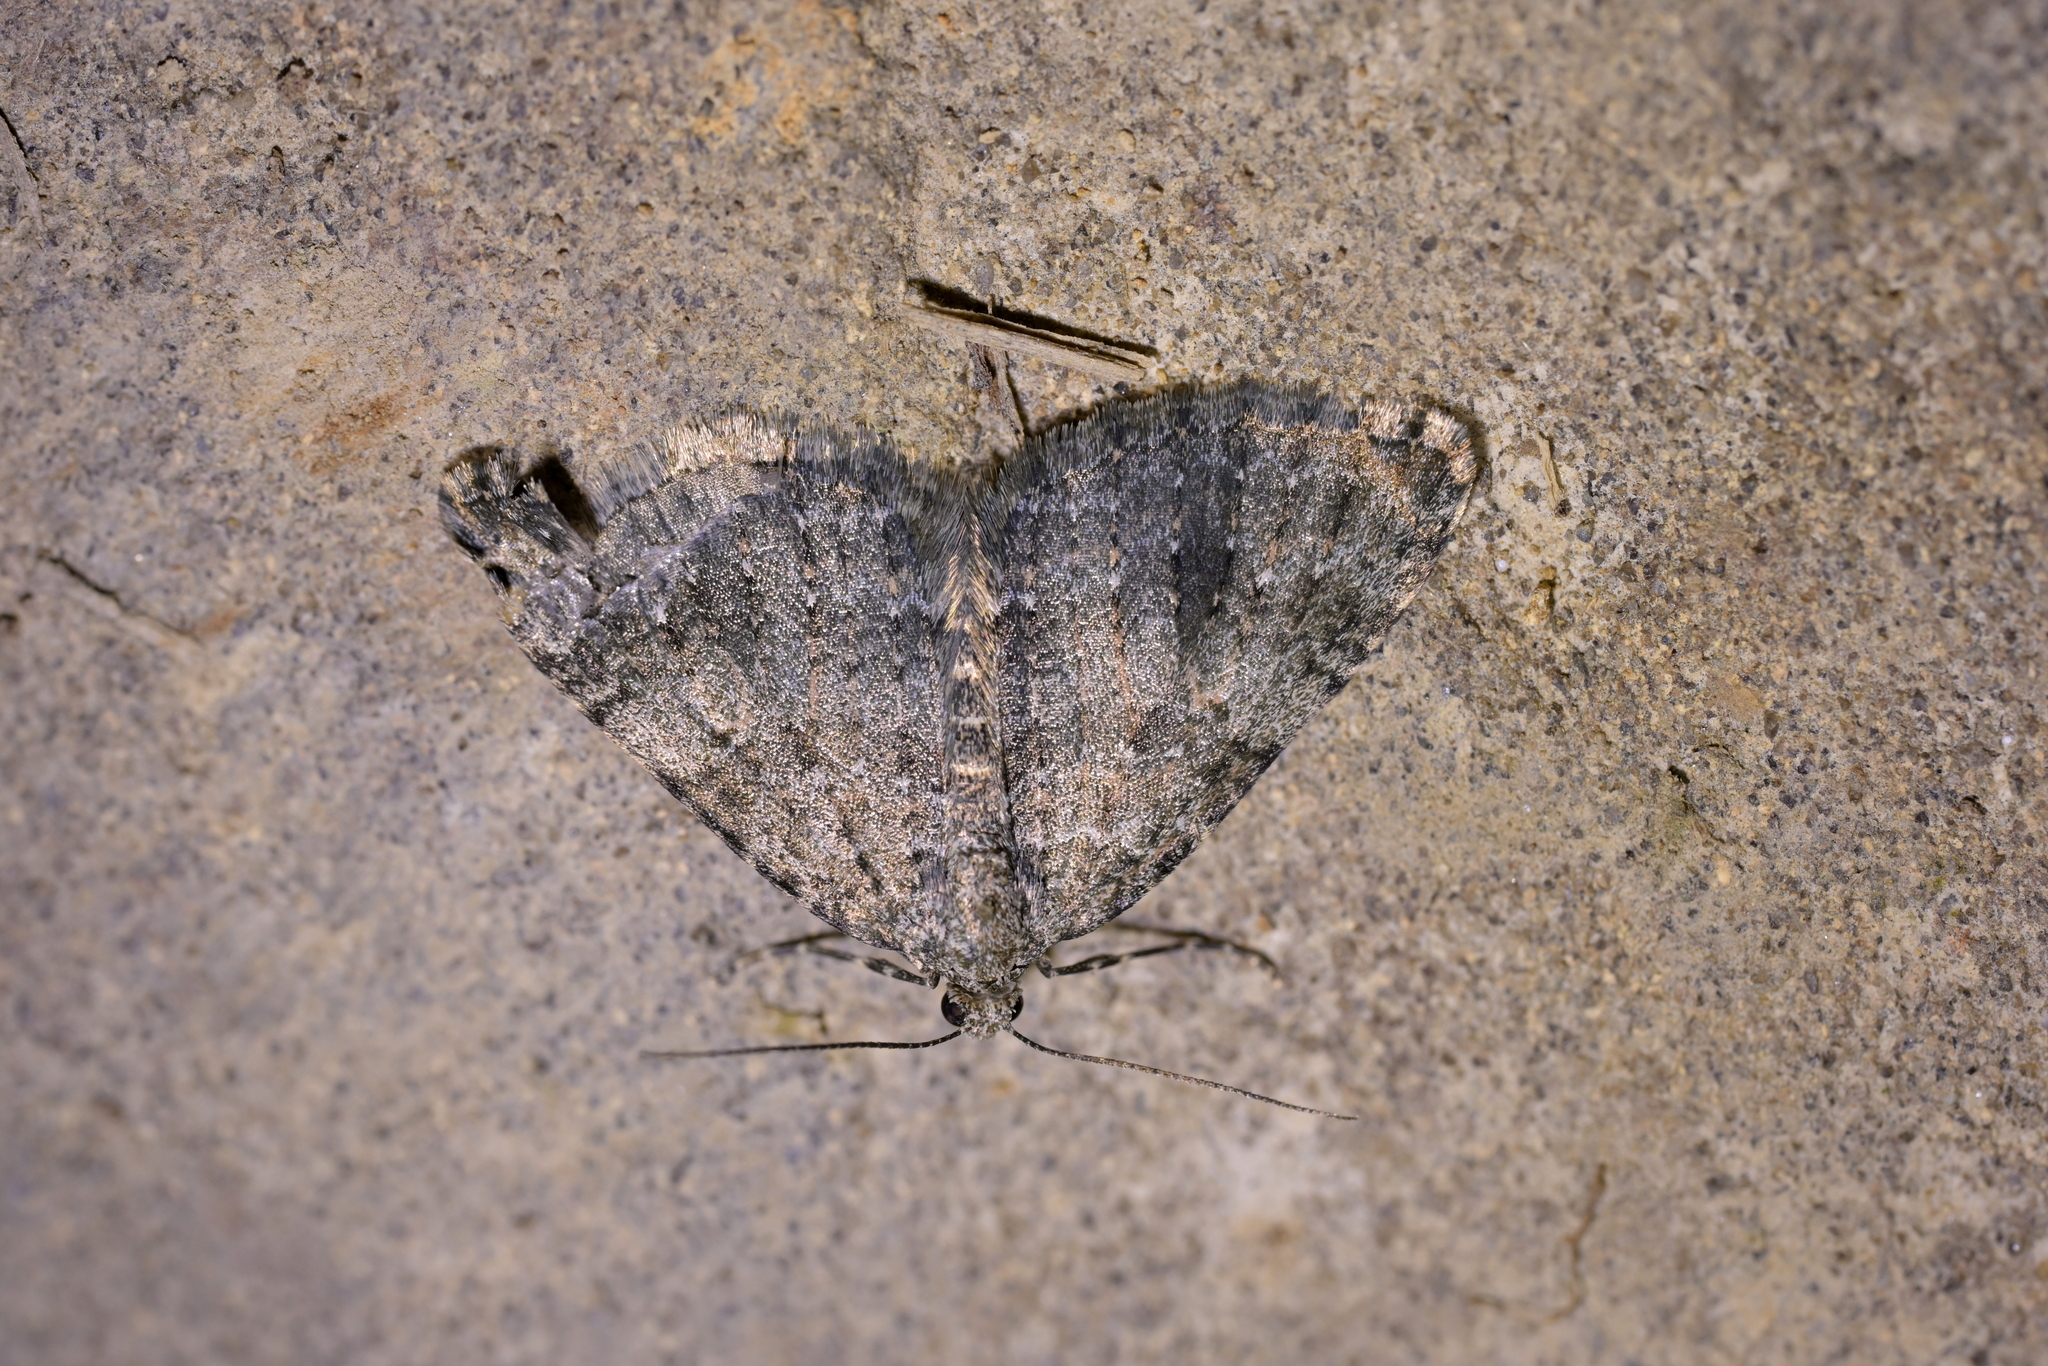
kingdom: Animalia
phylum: Arthropoda
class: Insecta
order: Lepidoptera
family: Geometridae
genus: Helastia
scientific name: Helastia semisignata
